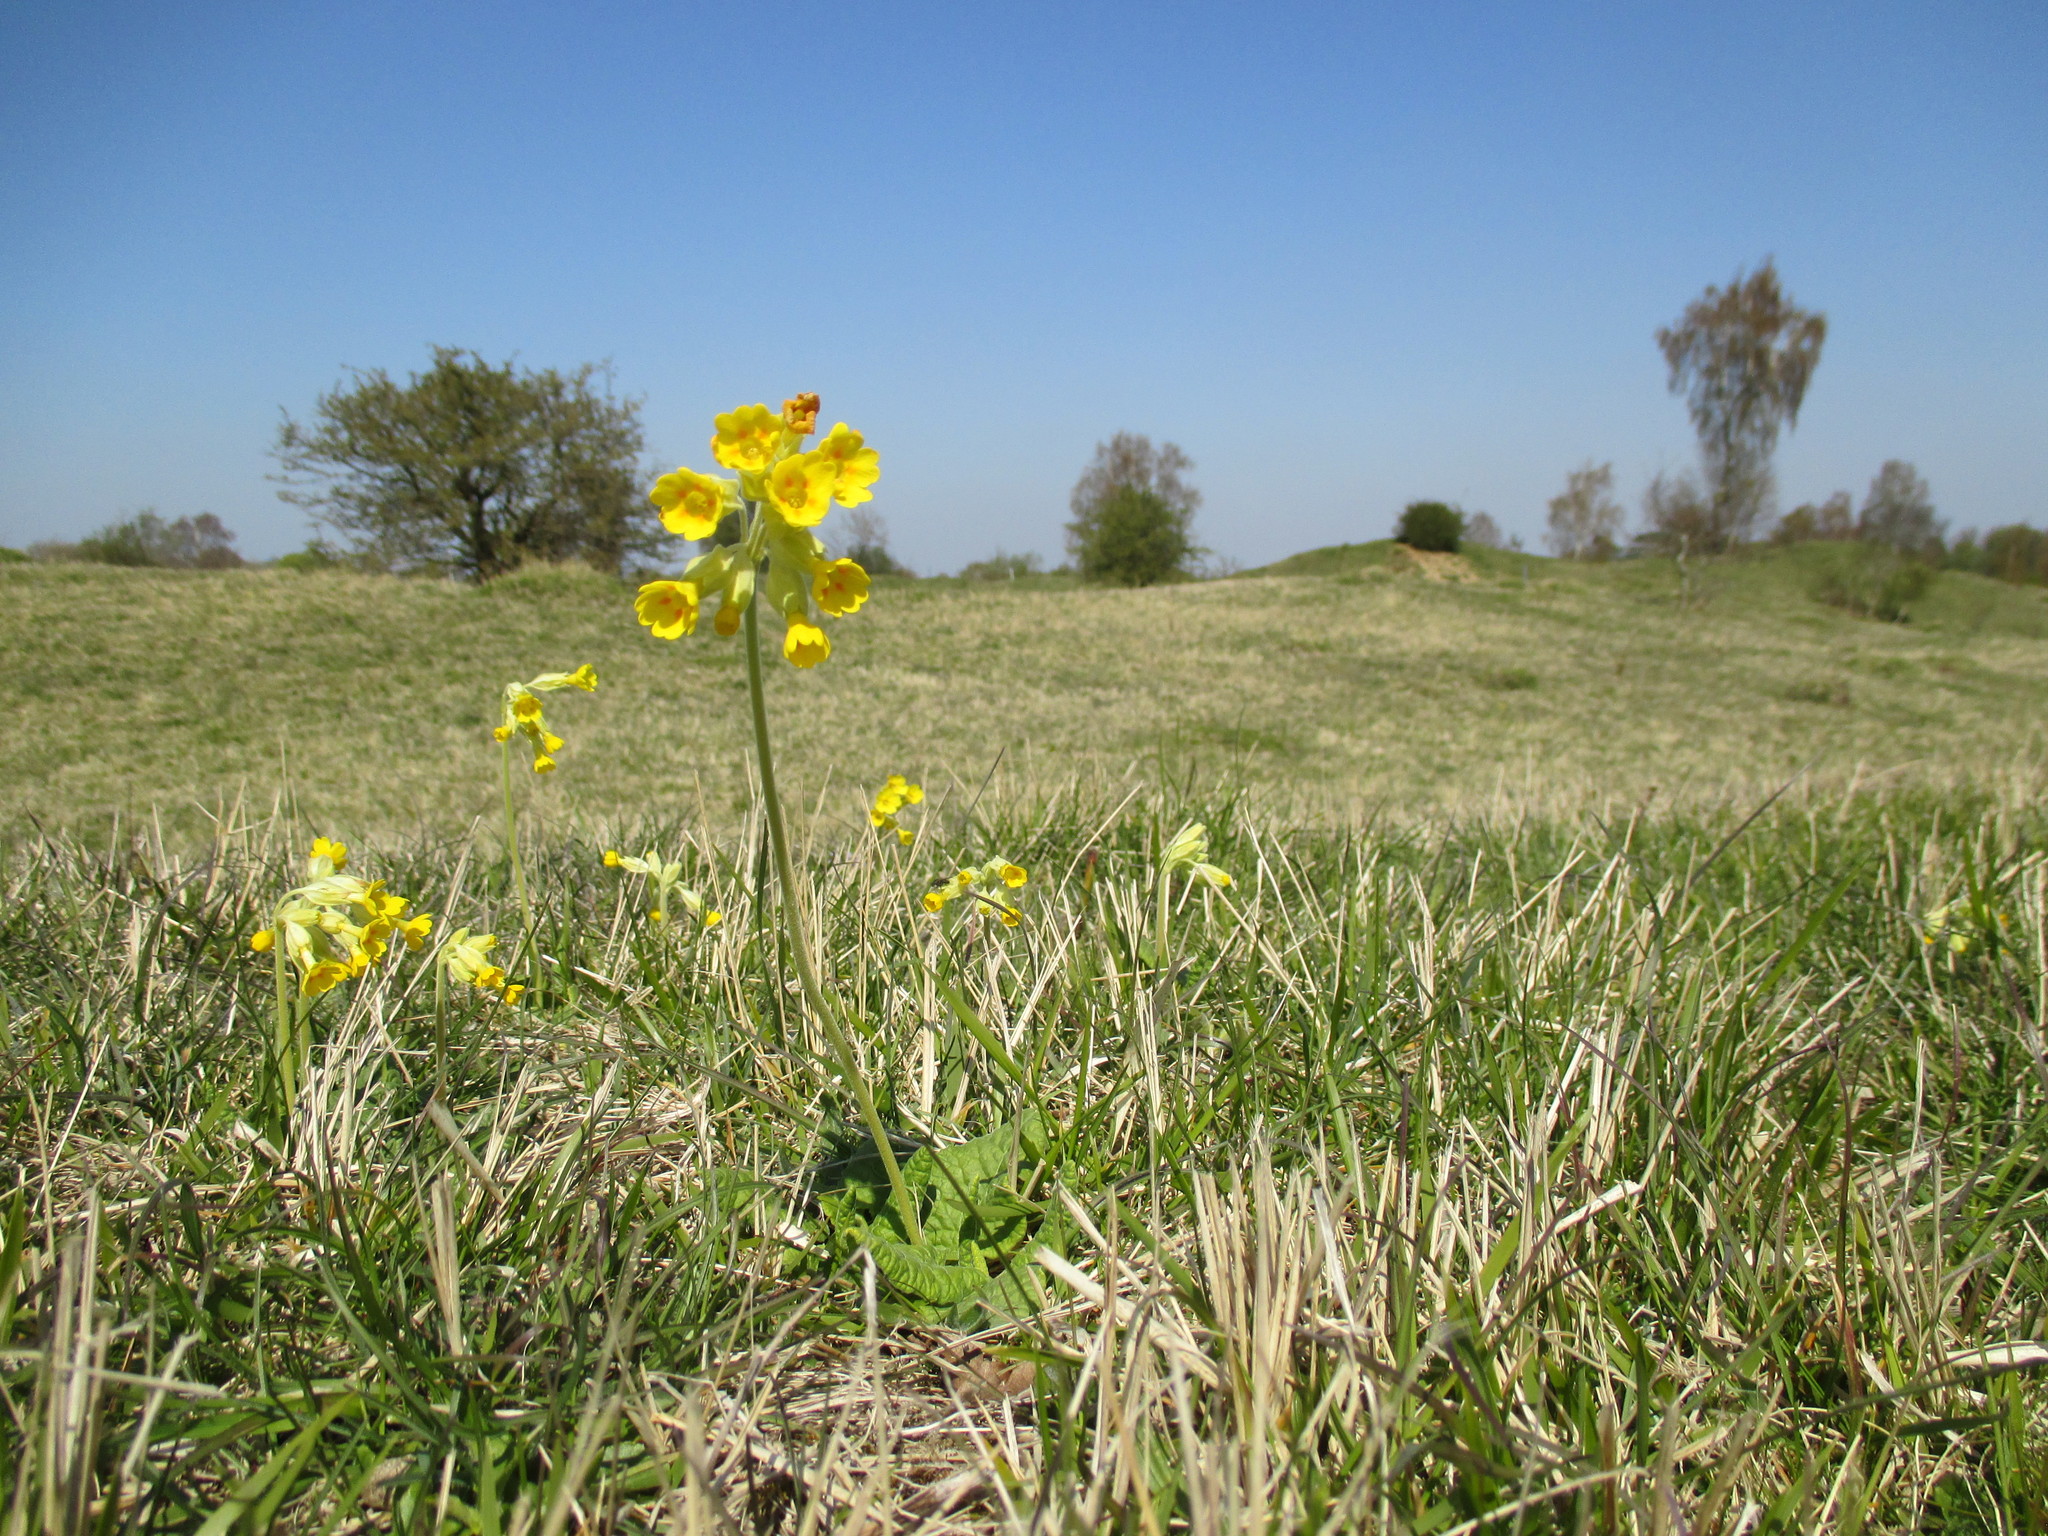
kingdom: Plantae
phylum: Tracheophyta
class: Magnoliopsida
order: Ericales
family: Primulaceae
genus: Primula
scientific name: Primula veris
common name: Cowslip
